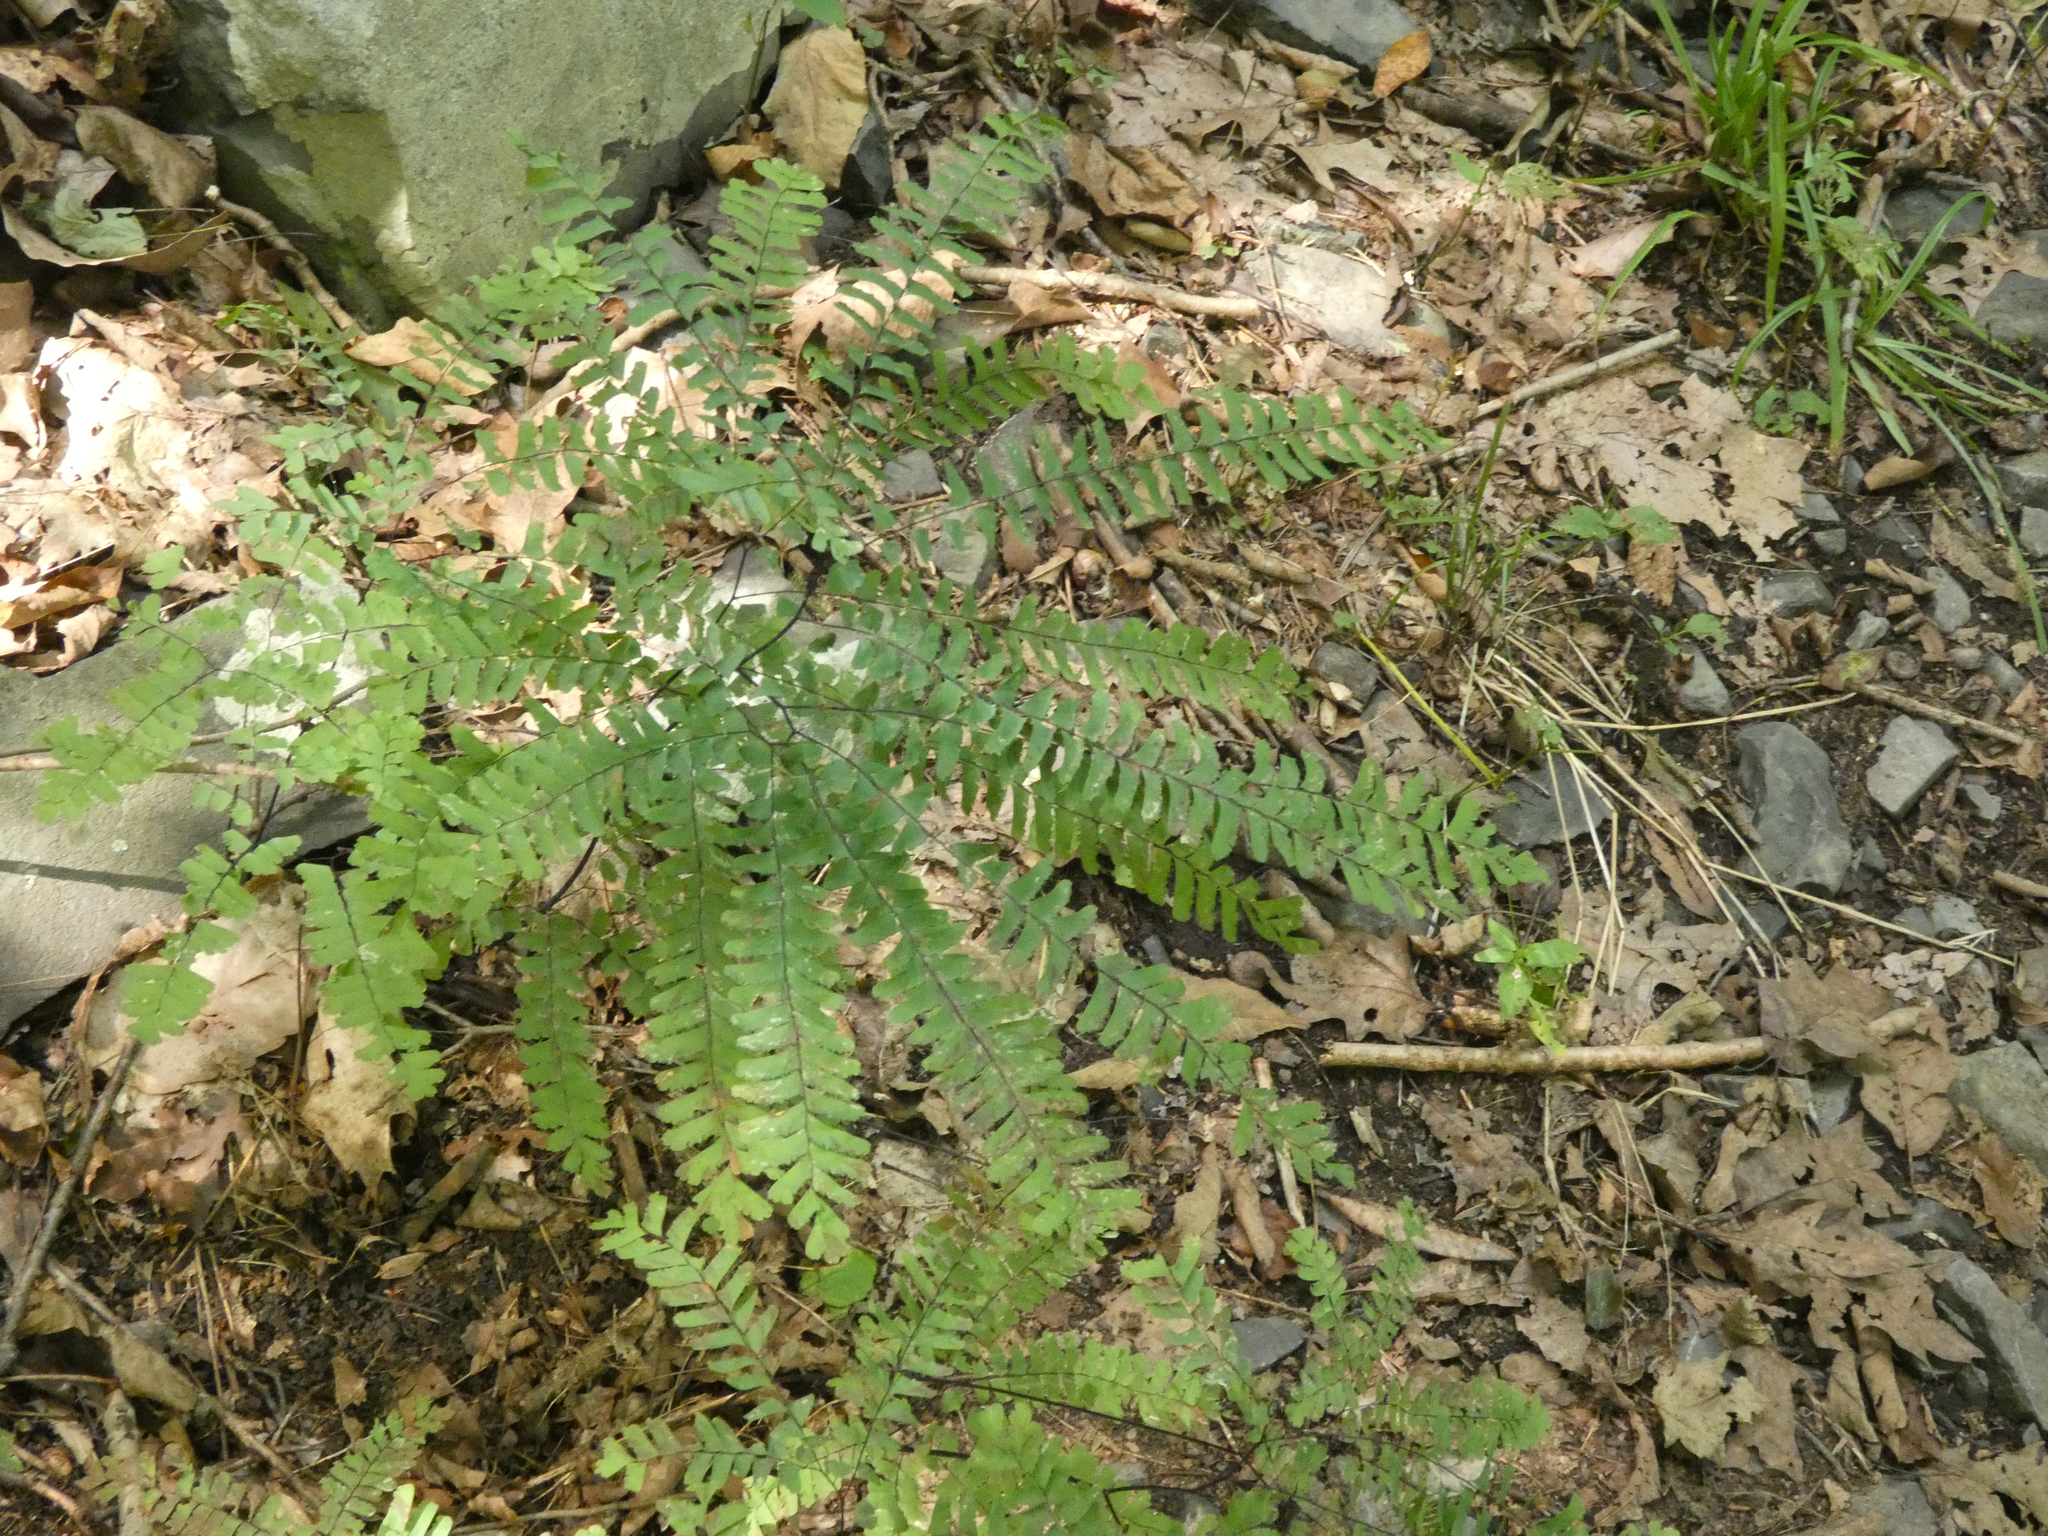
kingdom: Plantae
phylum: Tracheophyta
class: Polypodiopsida
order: Polypodiales
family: Pteridaceae
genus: Adiantum
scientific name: Adiantum pedatum
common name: Five-finger fern
